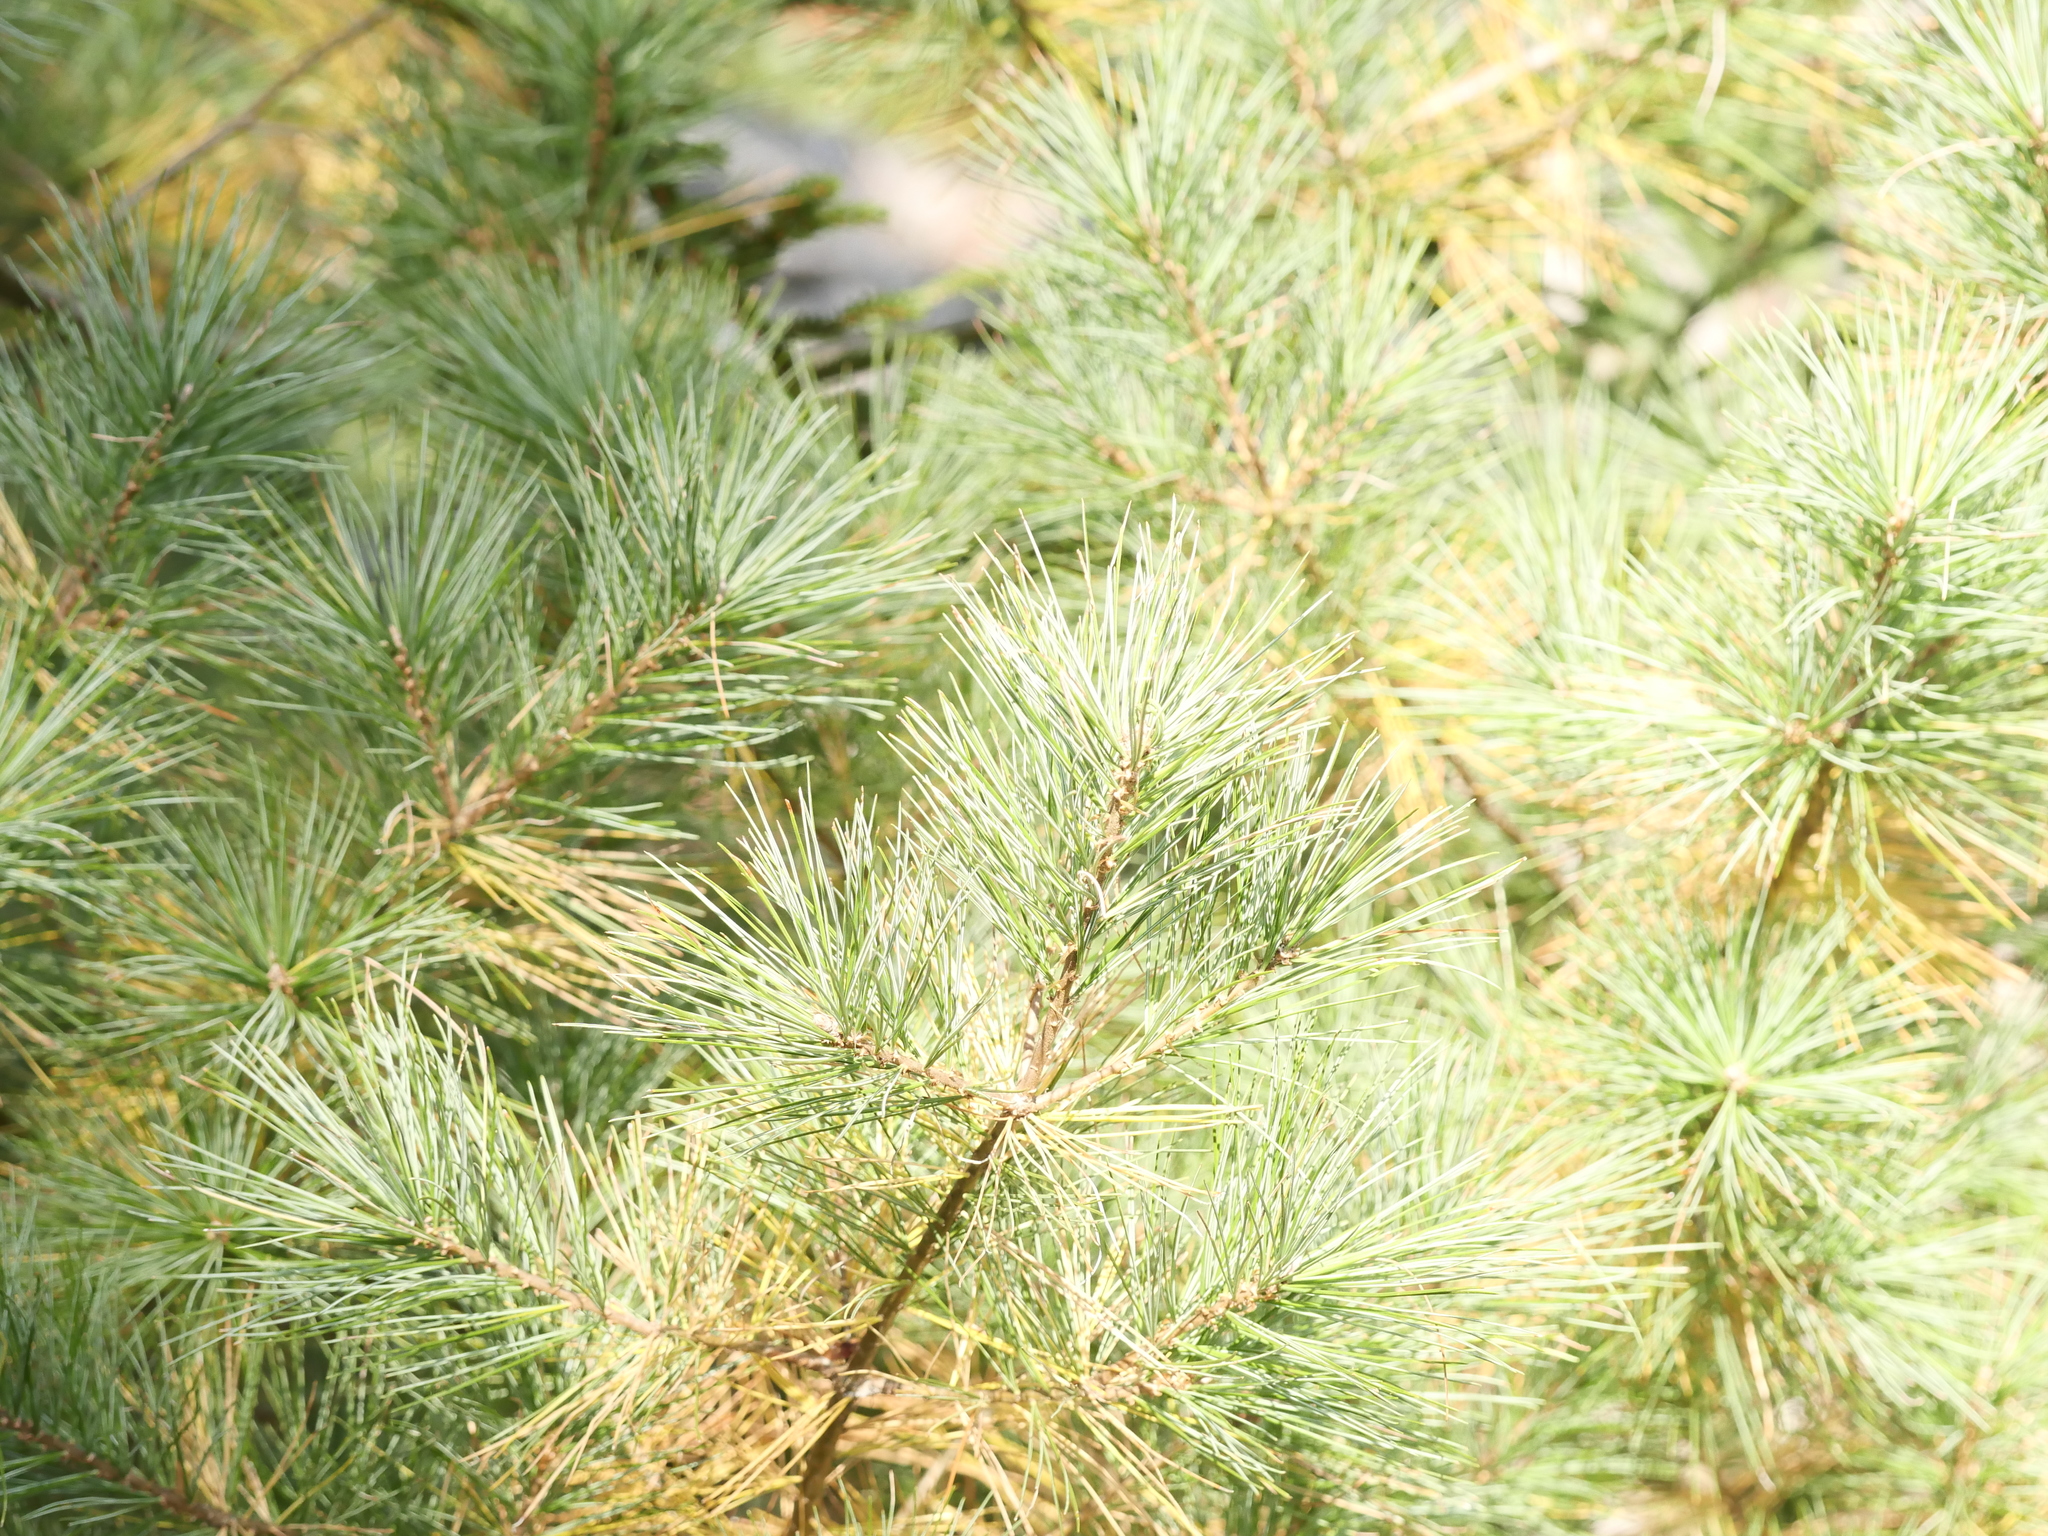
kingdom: Plantae
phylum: Tracheophyta
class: Pinopsida
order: Pinales
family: Pinaceae
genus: Pinus
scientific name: Pinus strobus
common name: Weymouth pine
